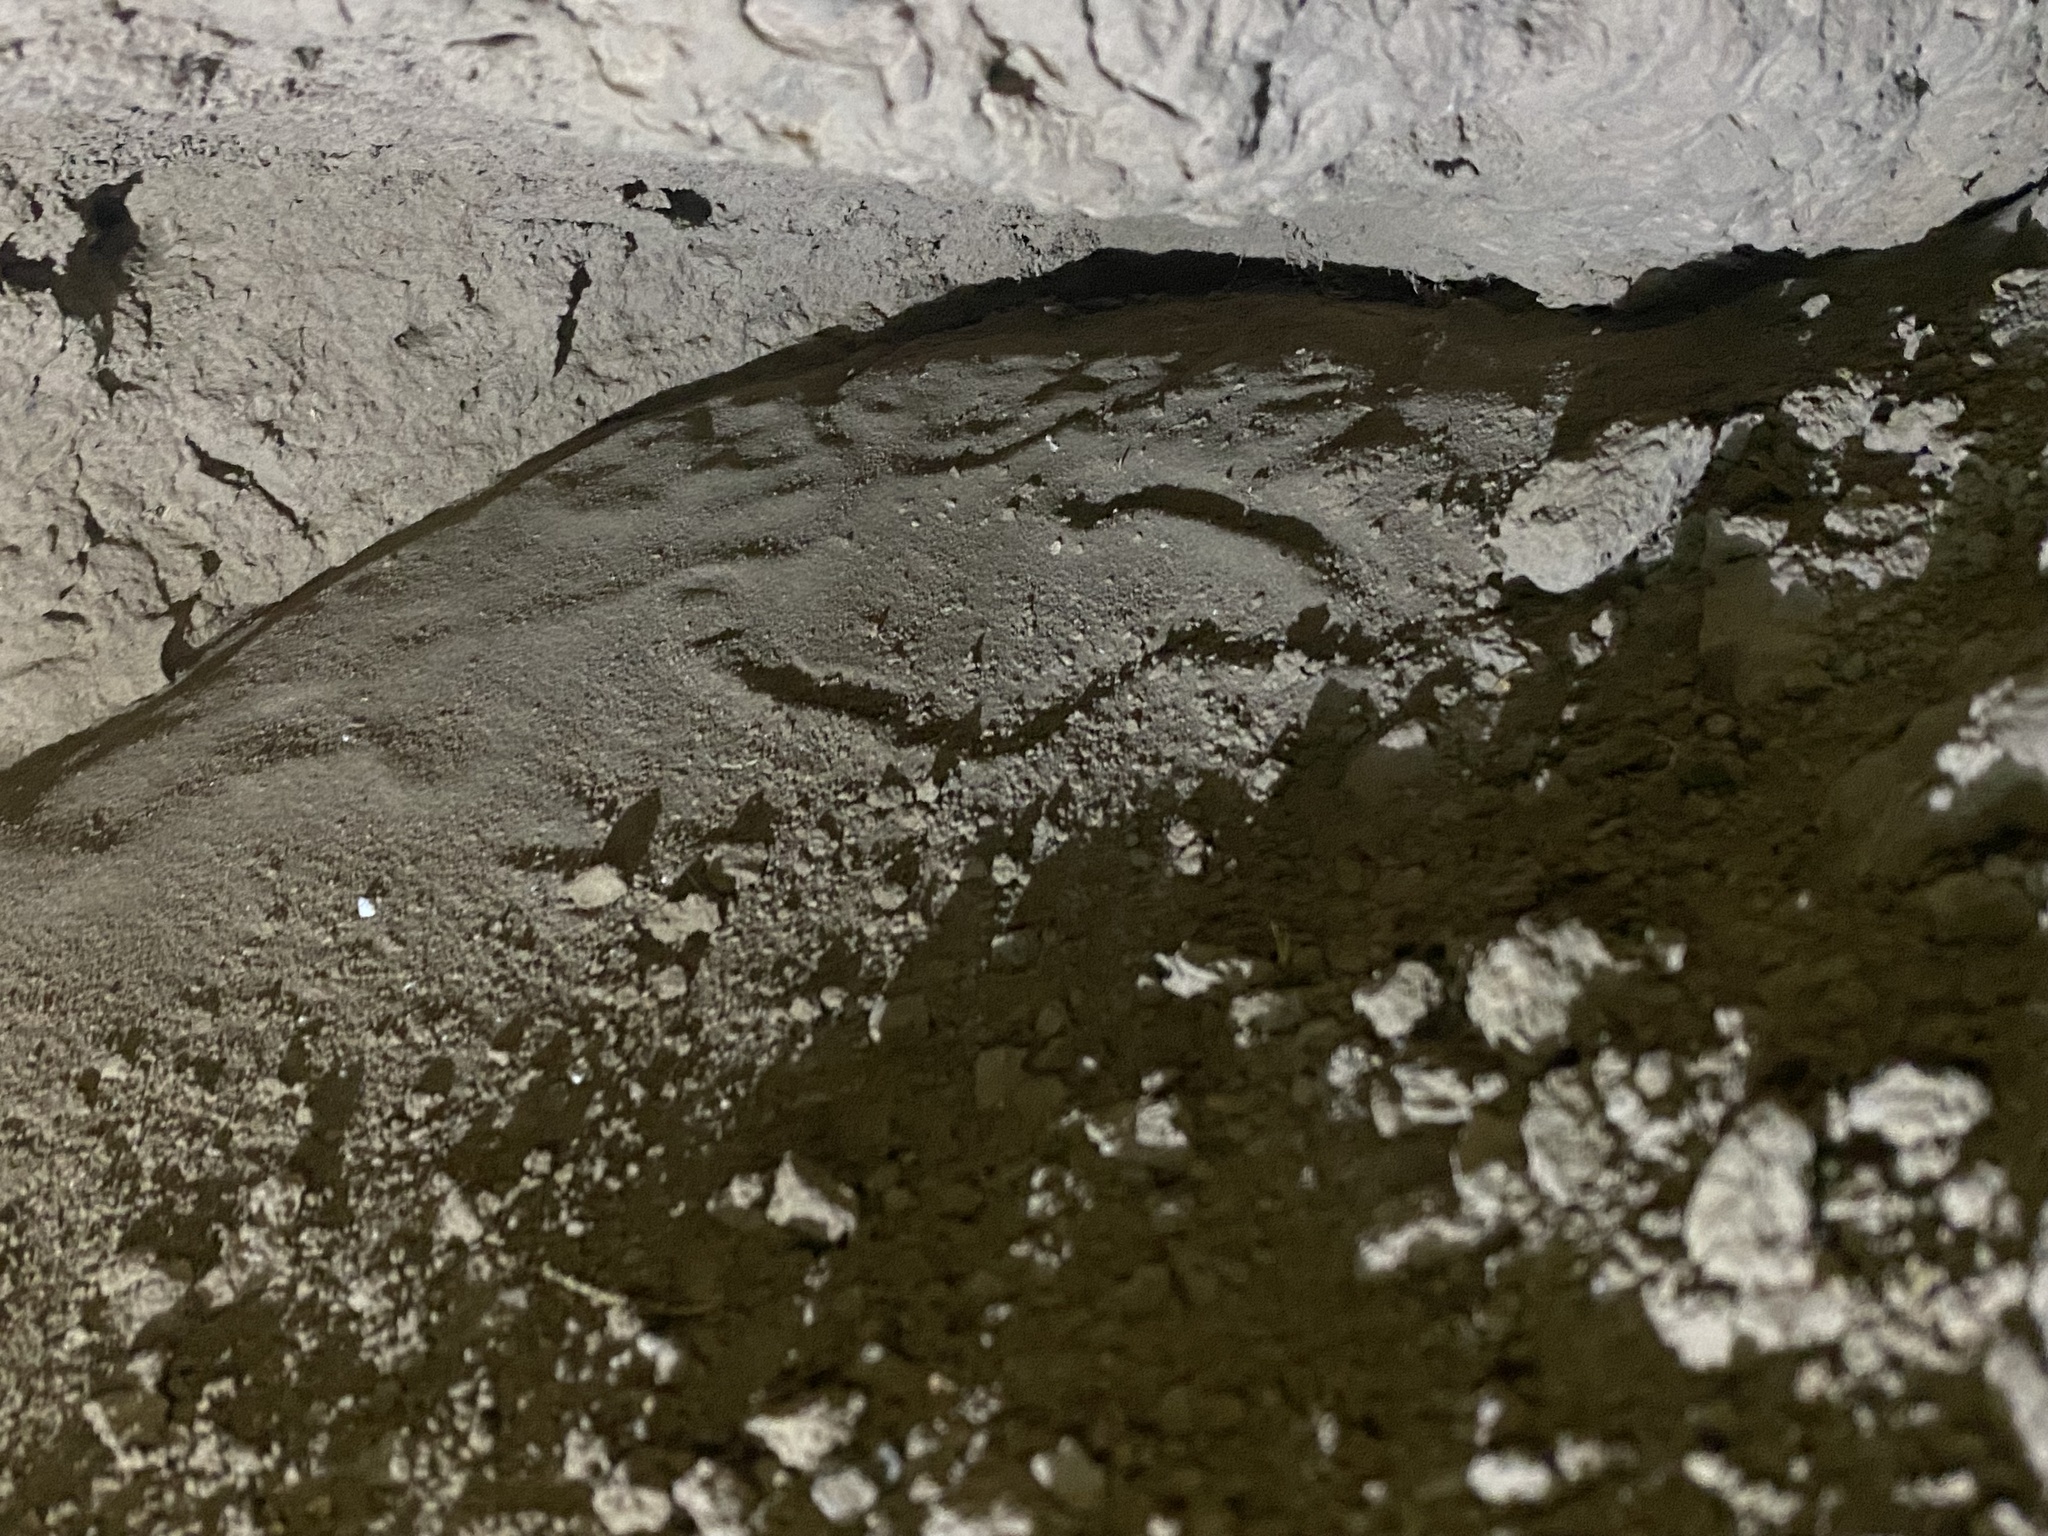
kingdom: Animalia
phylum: Chordata
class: Squamata
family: Scincidae
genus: Ophiomorus
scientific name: Ophiomorus nuchalis
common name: Plateau snake skink
